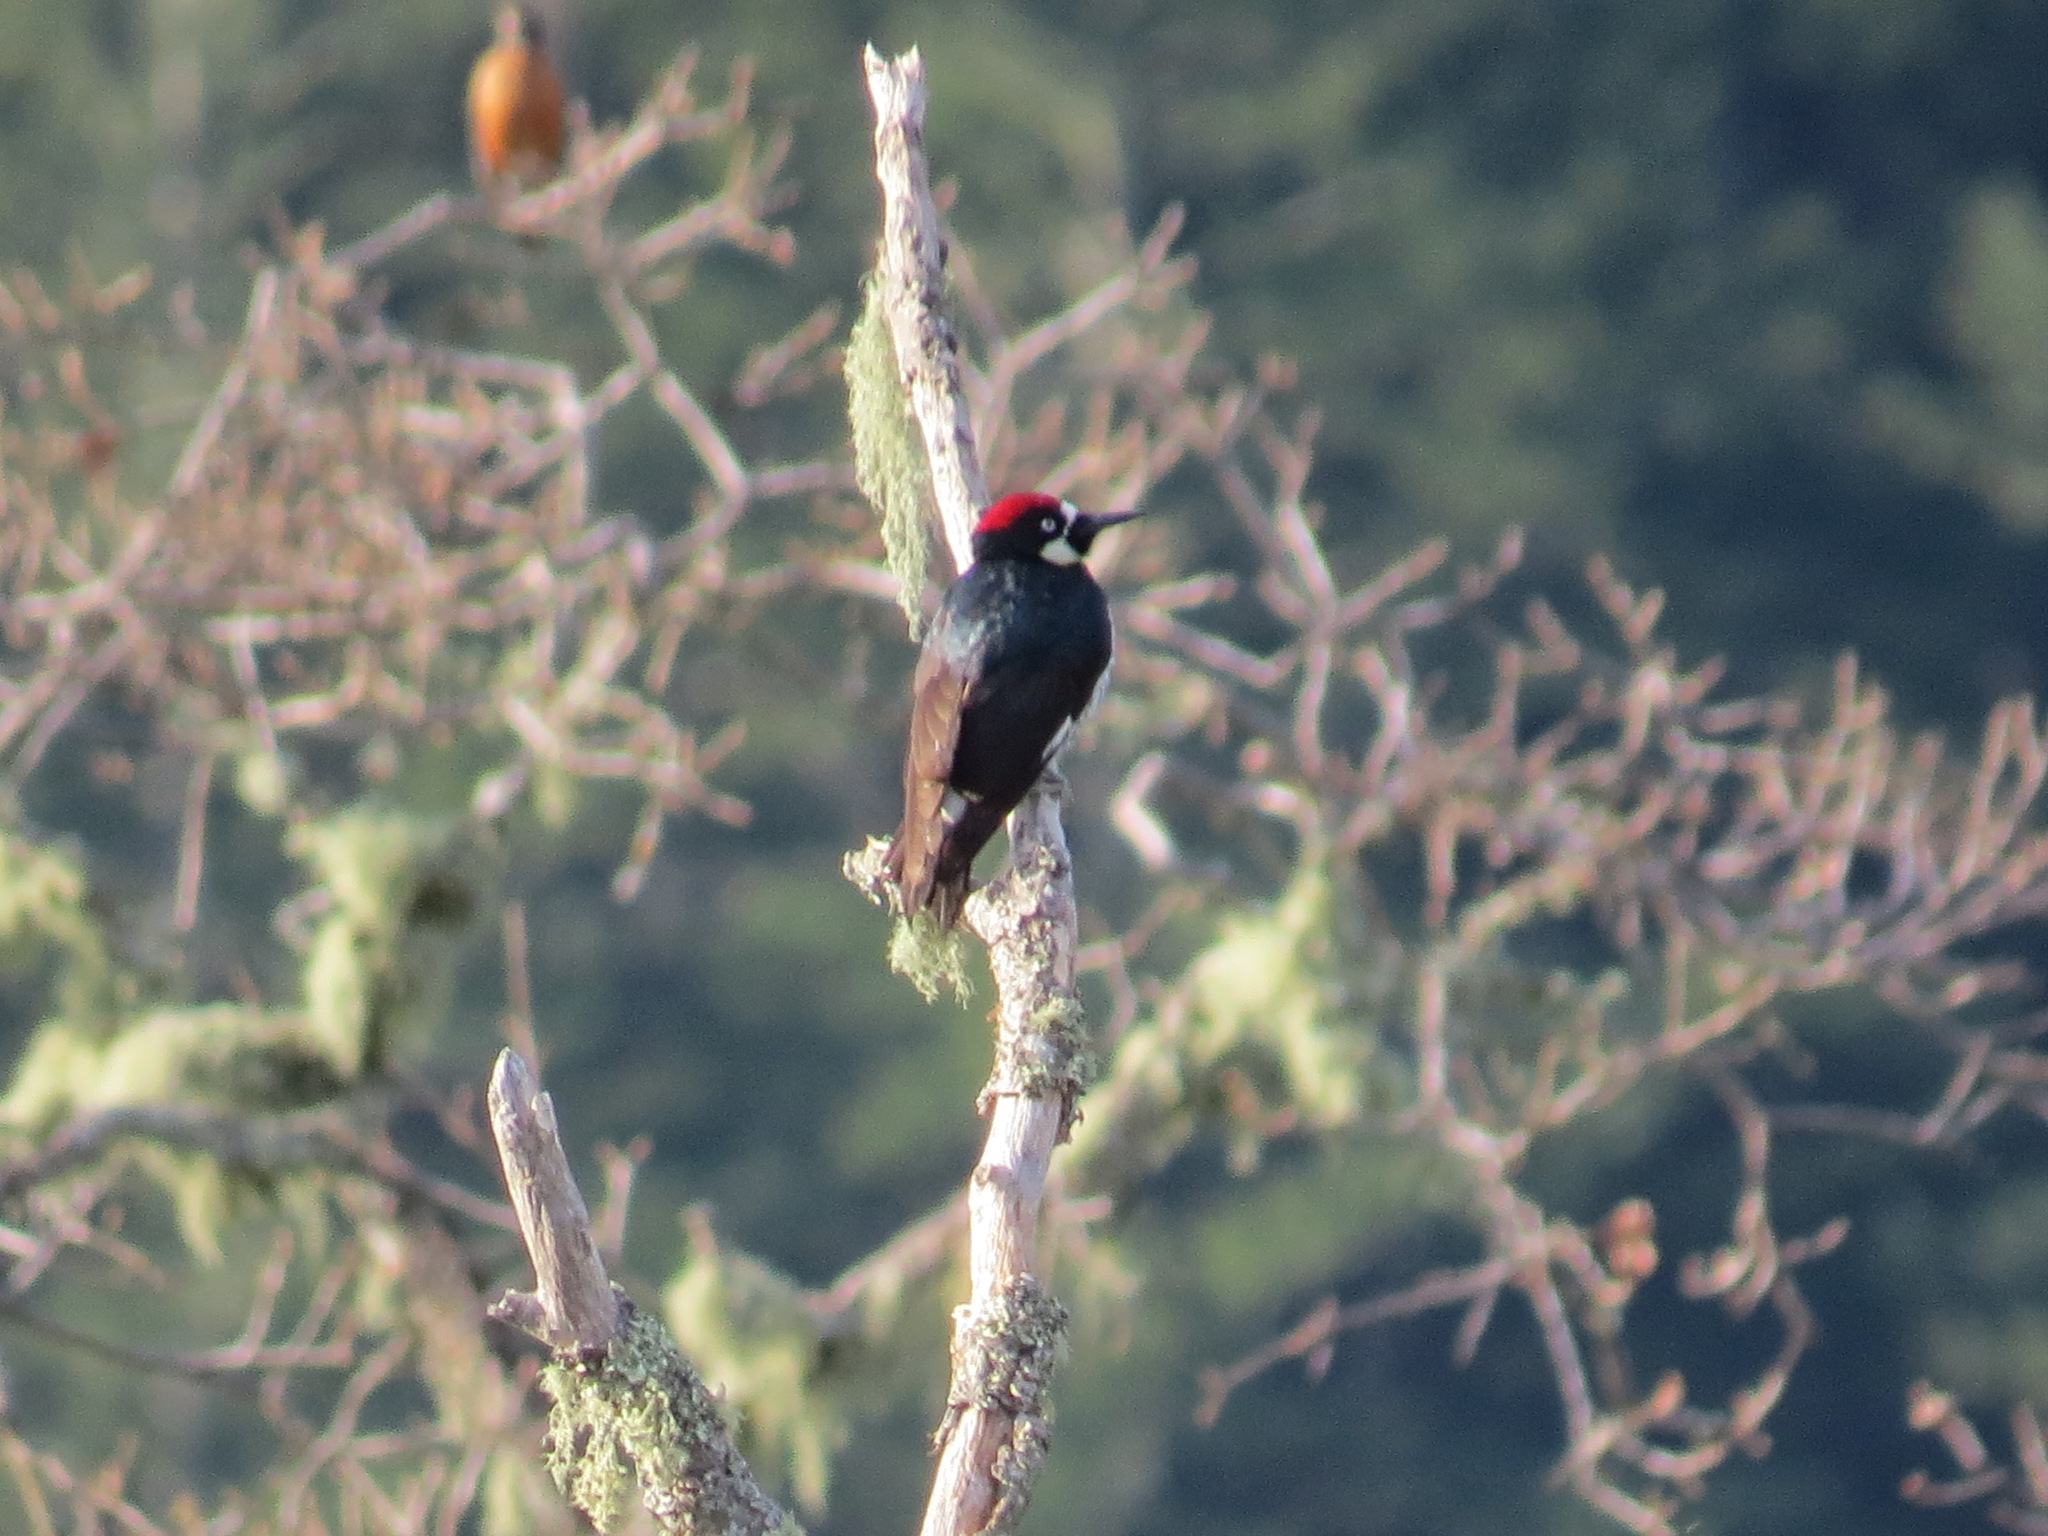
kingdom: Animalia
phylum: Chordata
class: Aves
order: Piciformes
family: Picidae
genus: Melanerpes
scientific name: Melanerpes formicivorus
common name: Acorn woodpecker
